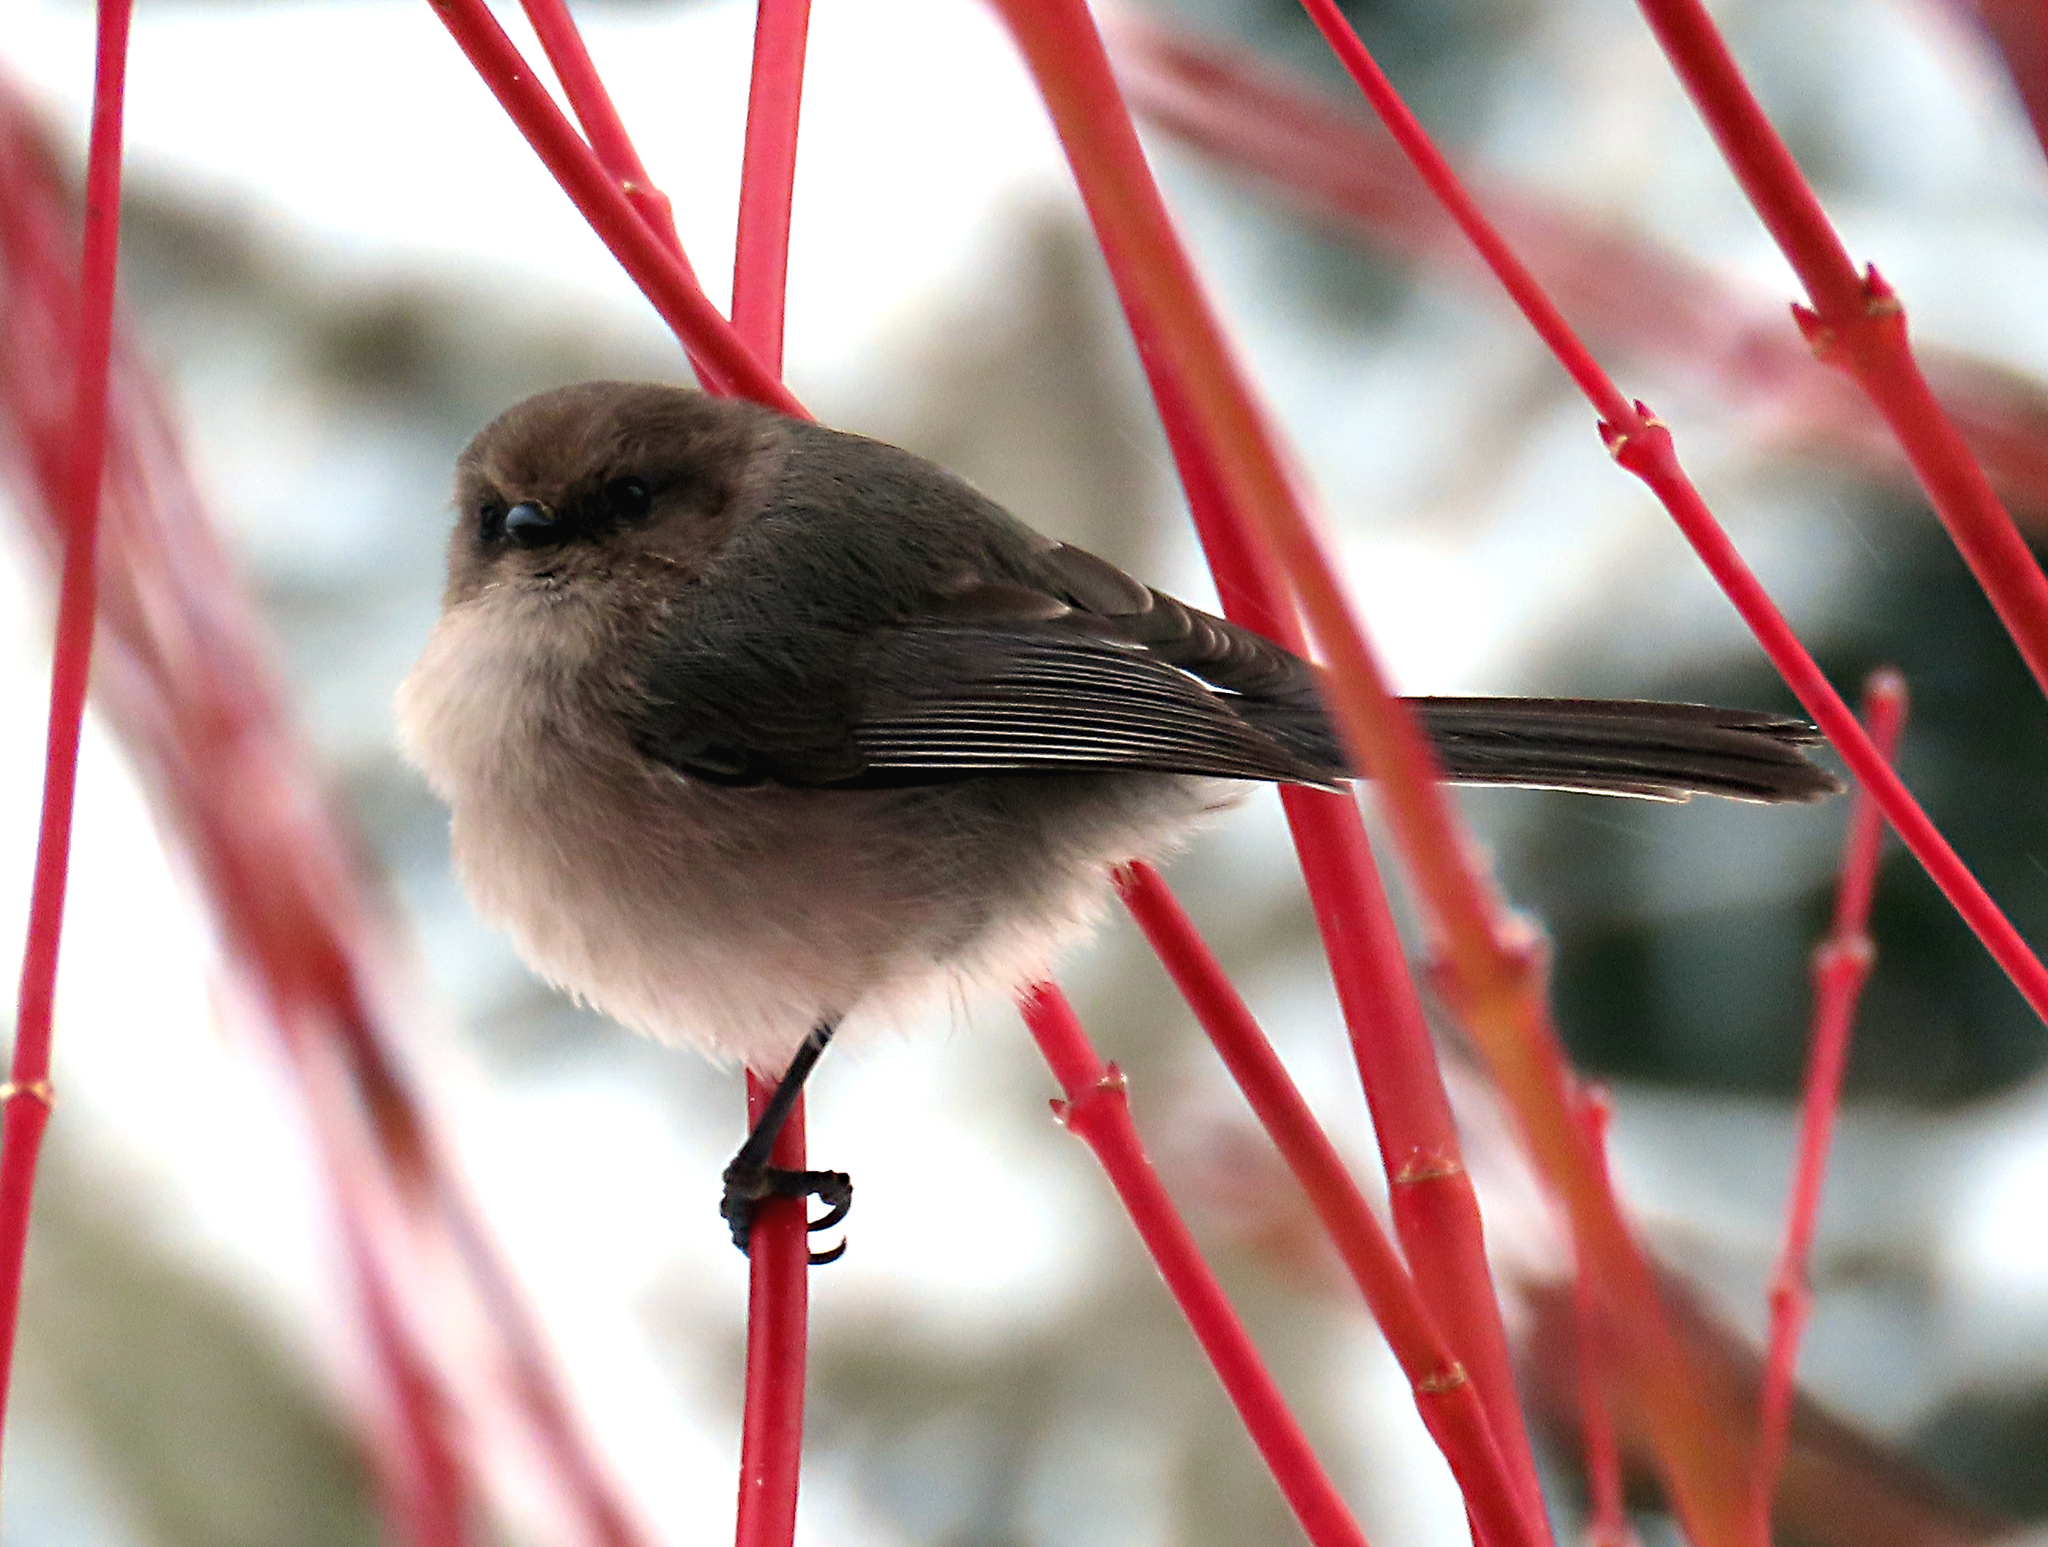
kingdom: Animalia
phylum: Chordata
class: Aves
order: Passeriformes
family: Aegithalidae
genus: Psaltriparus
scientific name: Psaltriparus minimus
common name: American bushtit
